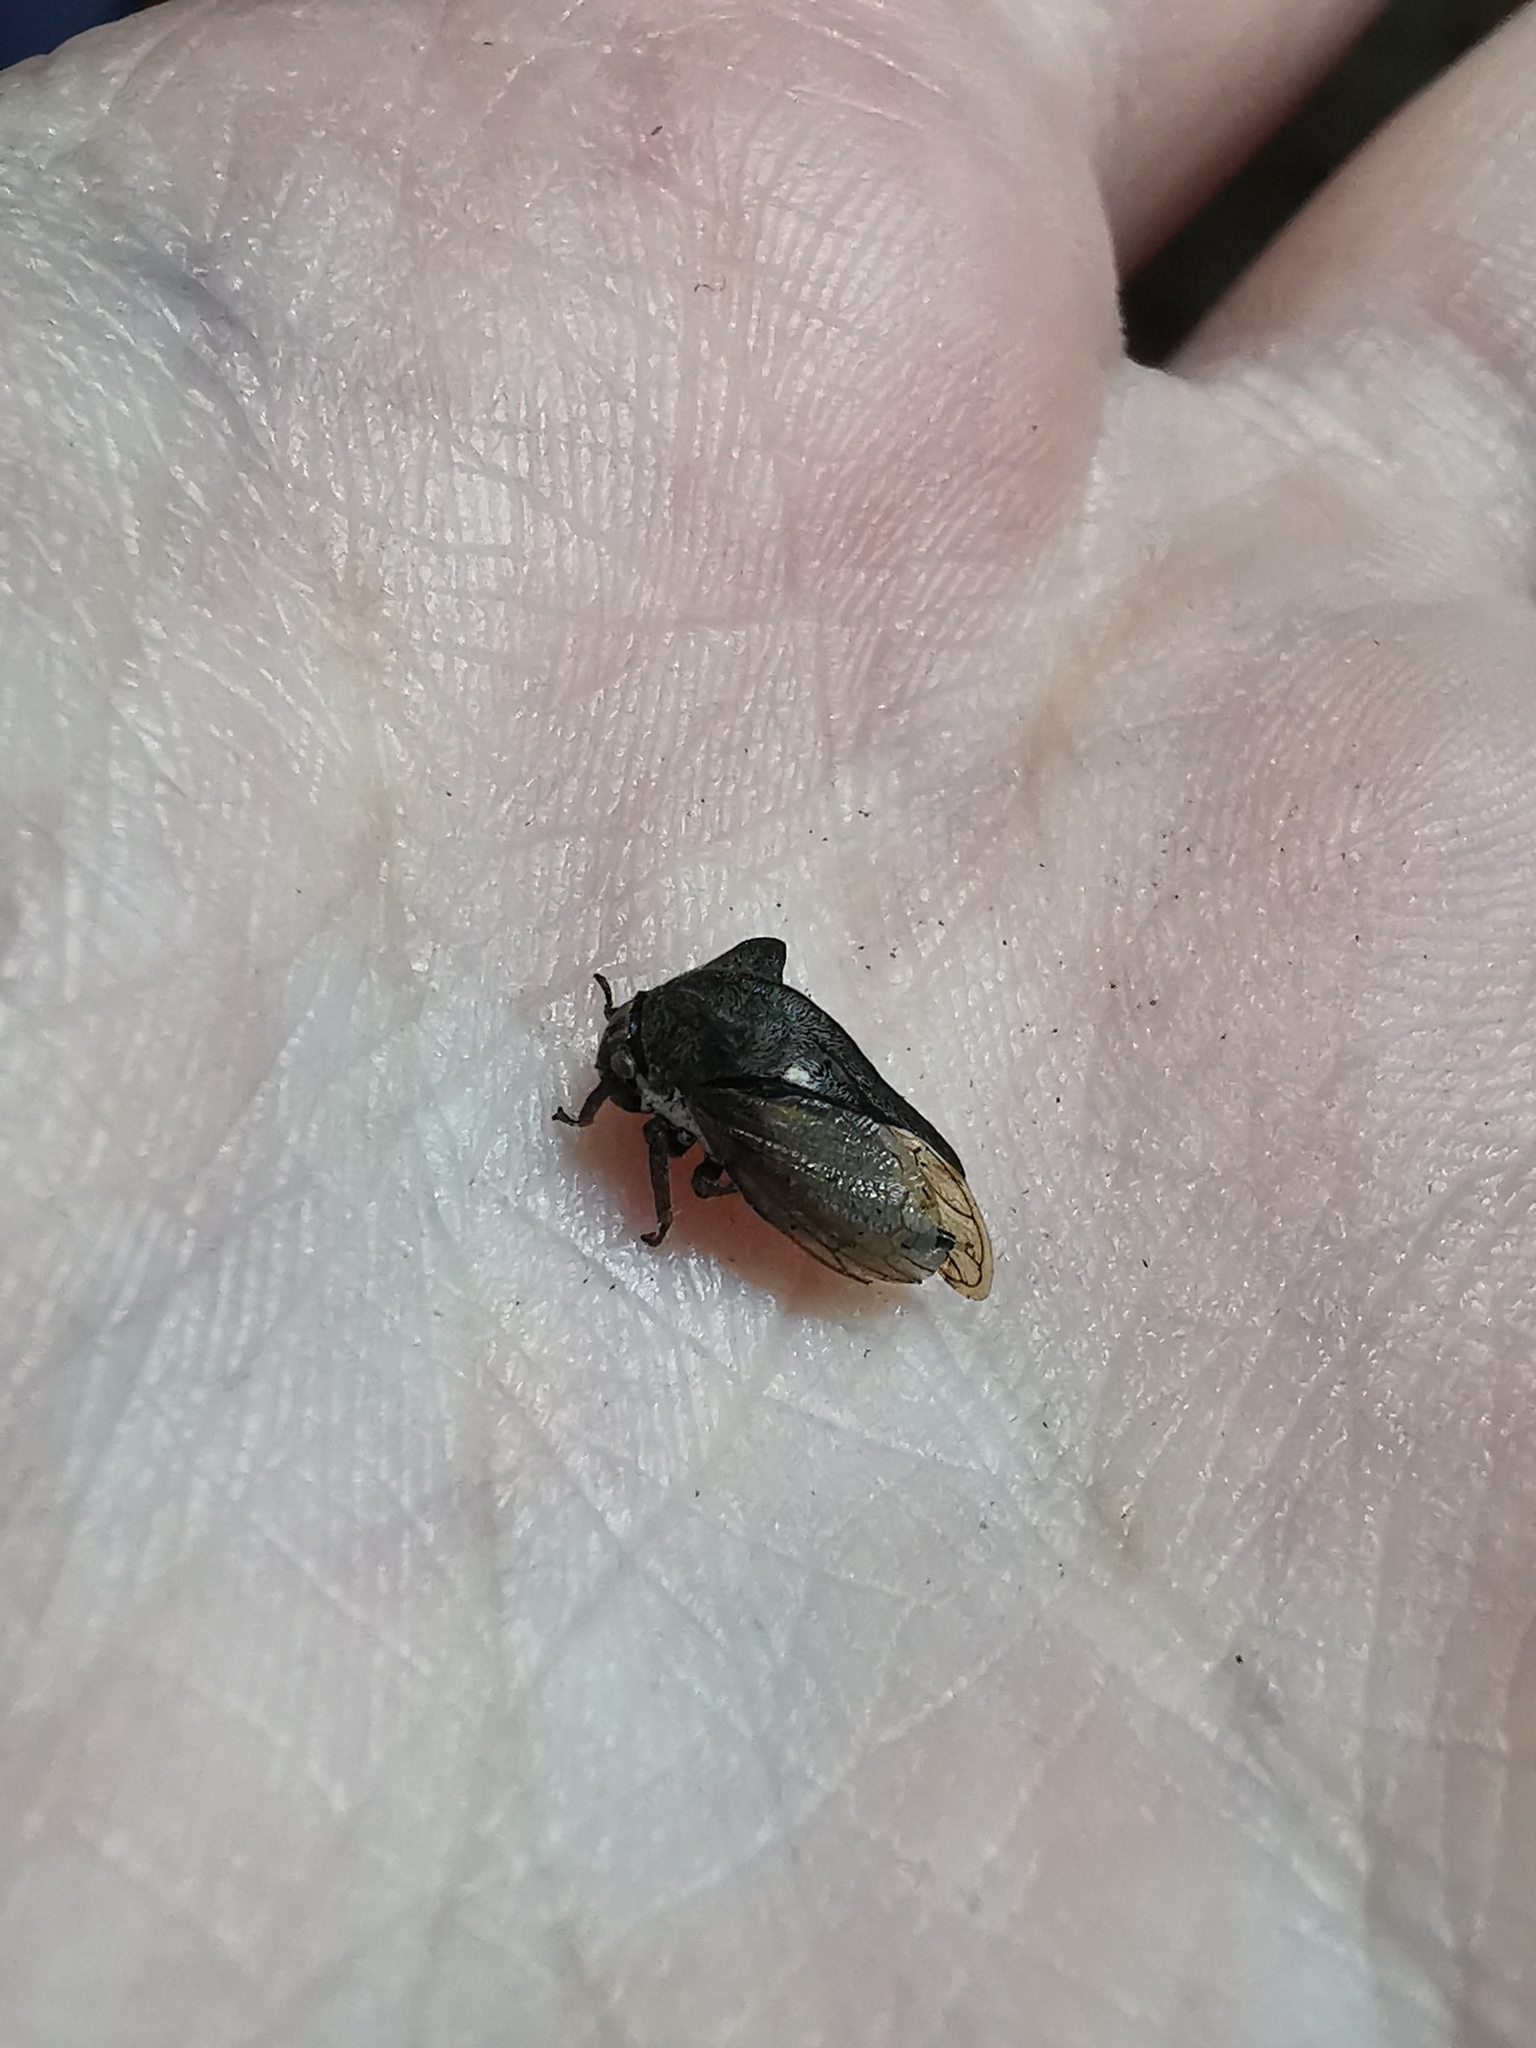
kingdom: Animalia
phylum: Arthropoda
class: Insecta
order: Hemiptera
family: Membracidae
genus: Centrotus
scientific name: Centrotus cornuta
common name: Treehopper
